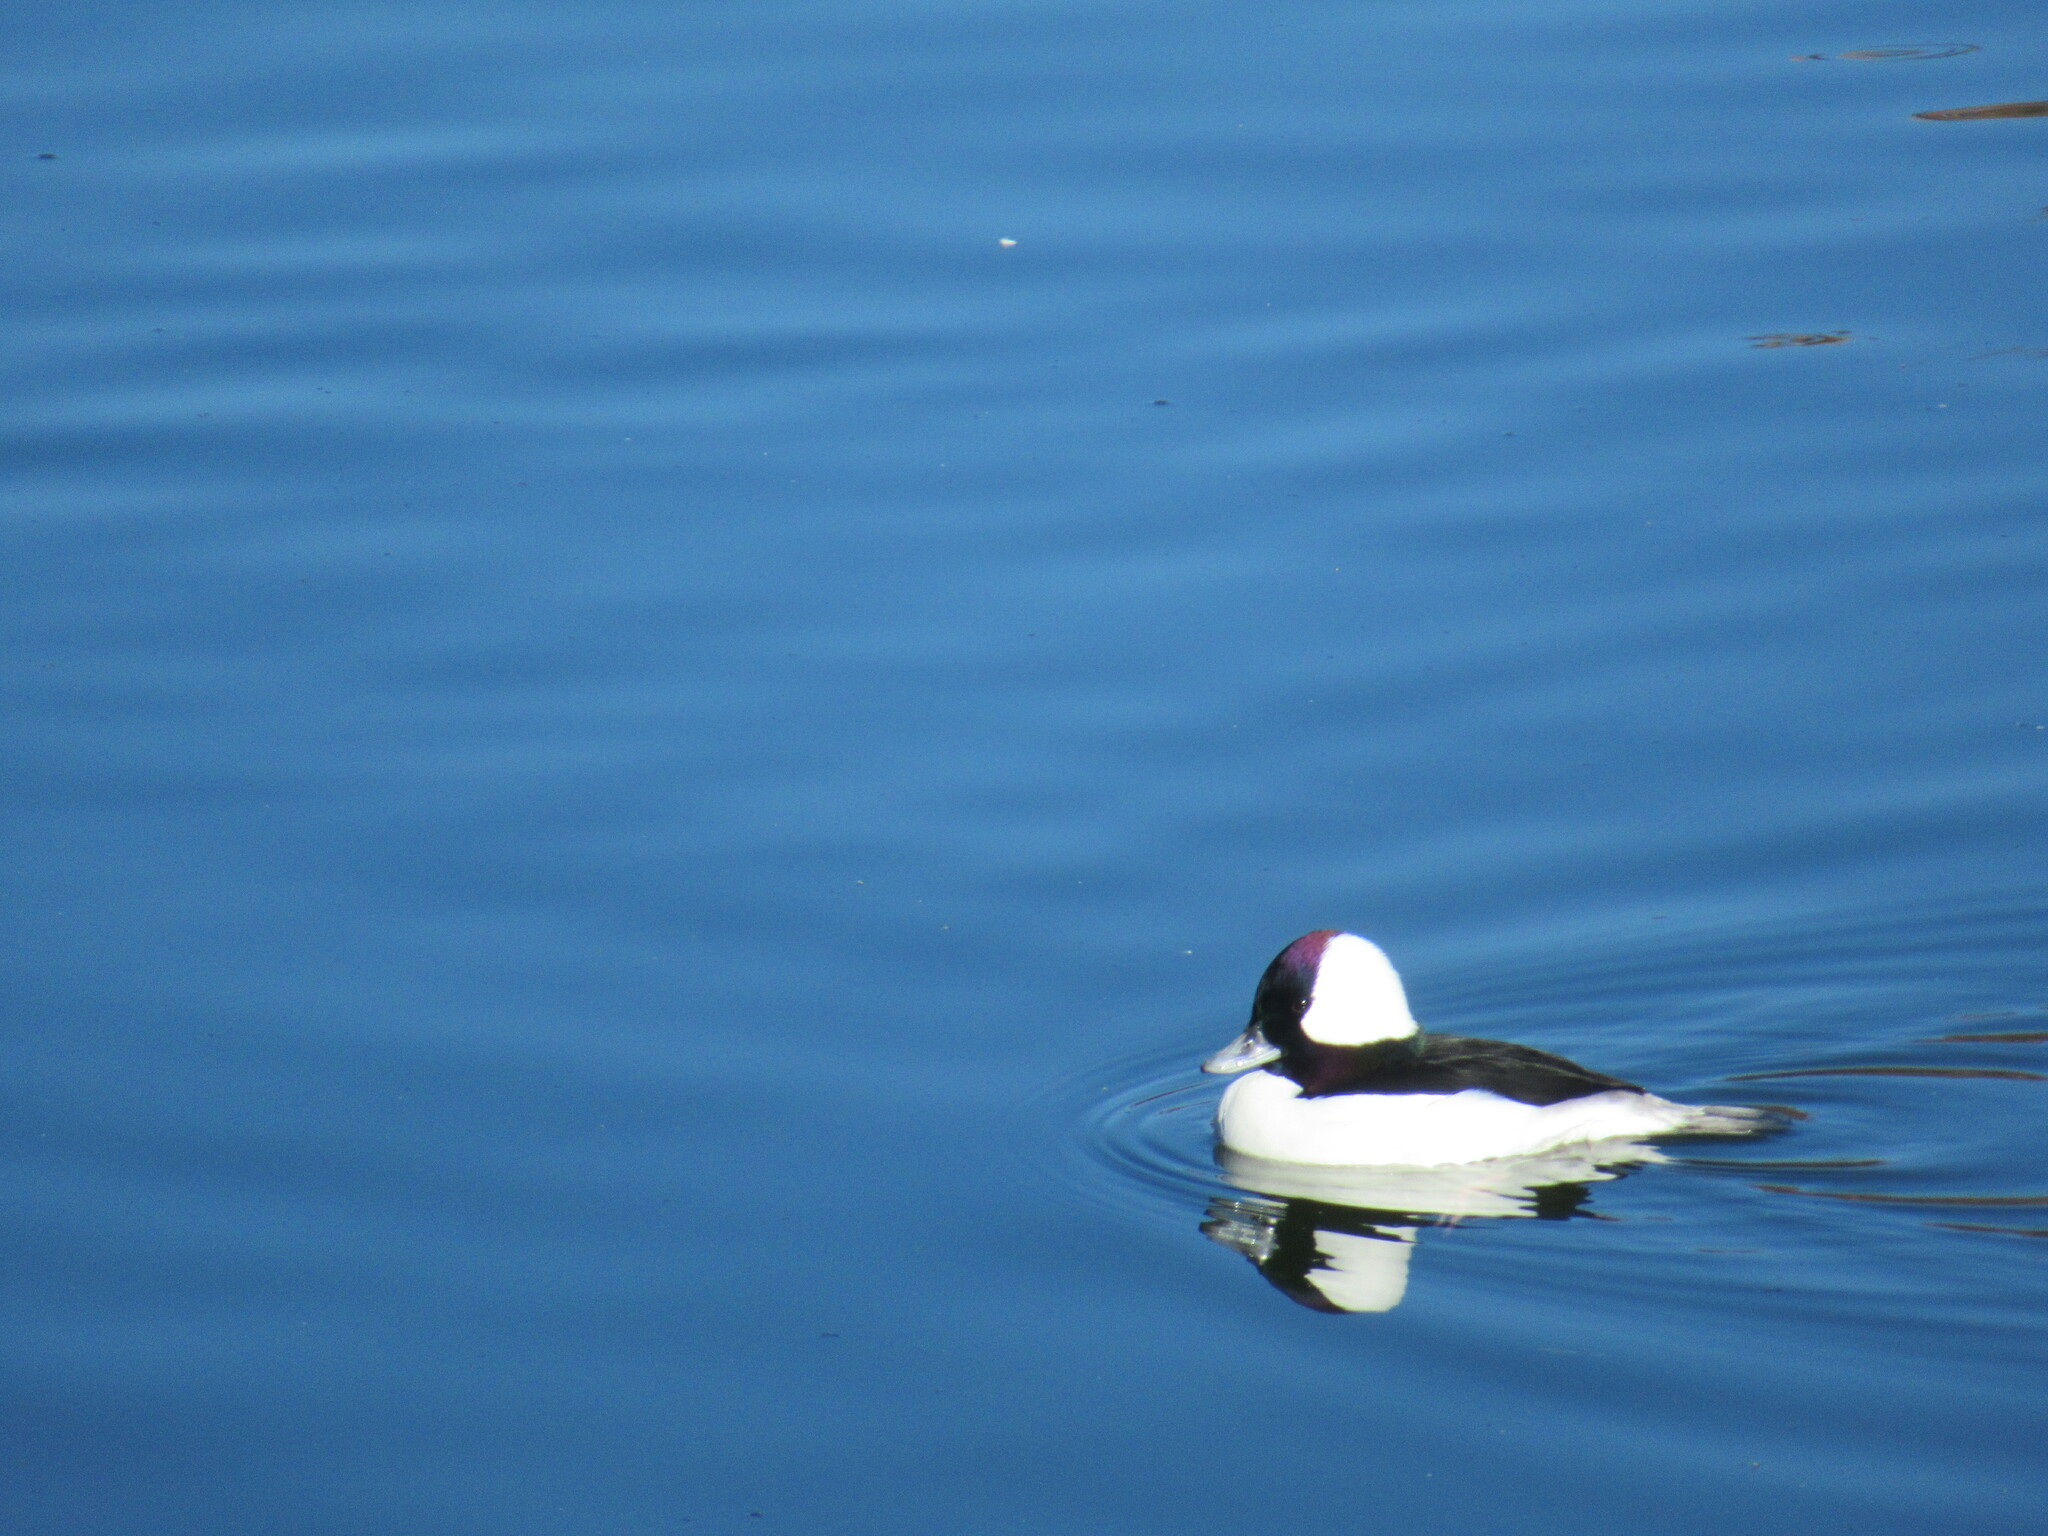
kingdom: Animalia
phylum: Chordata
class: Aves
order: Anseriformes
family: Anatidae
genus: Bucephala
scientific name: Bucephala albeola
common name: Bufflehead
